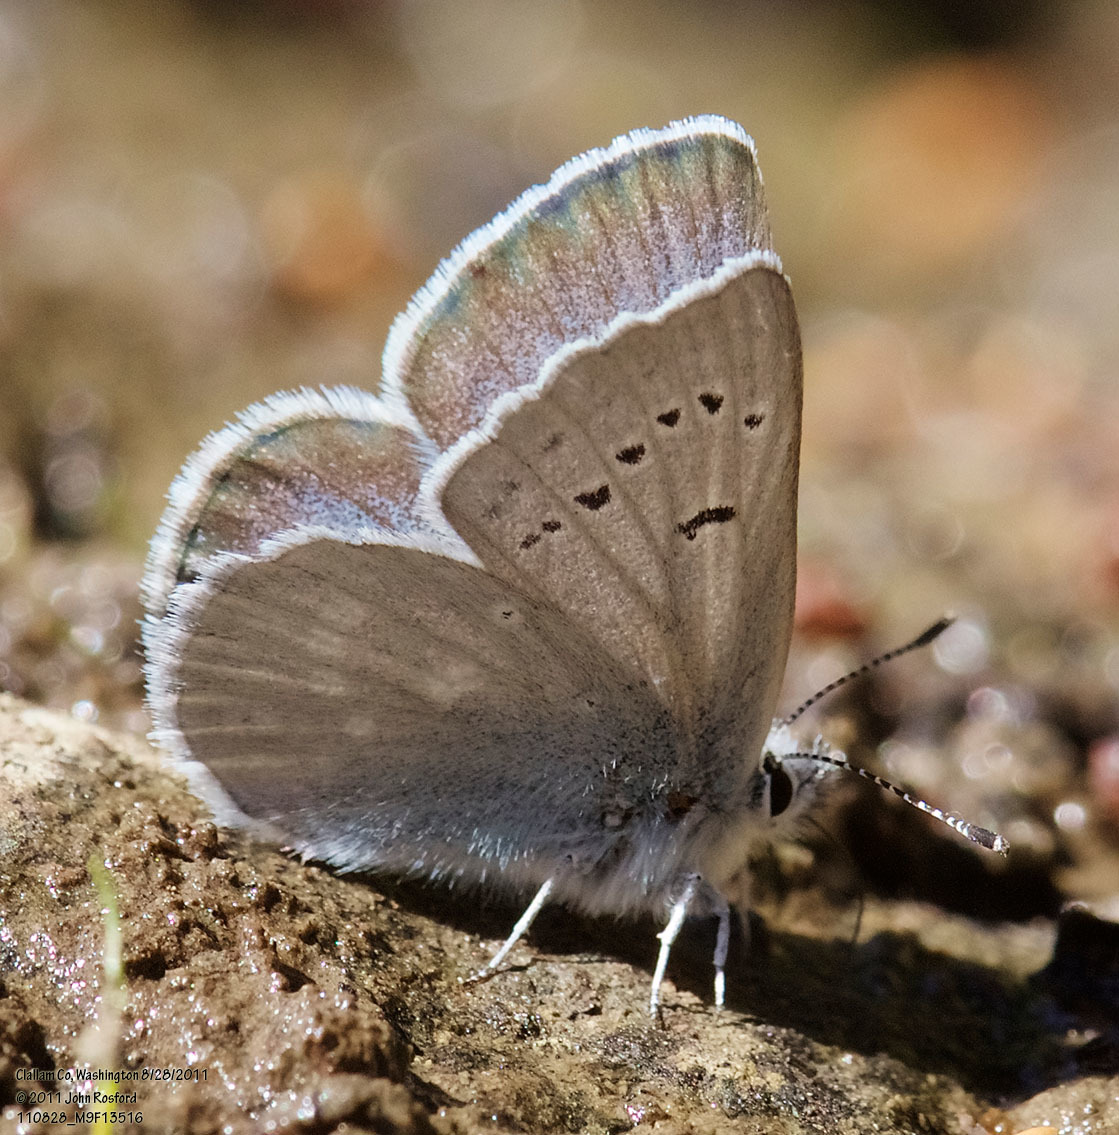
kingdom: Animalia
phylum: Arthropoda
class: Insecta
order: Lepidoptera
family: Lycaenidae
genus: Icaricia
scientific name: Icaricia icarioides
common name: Boisduval's blue
